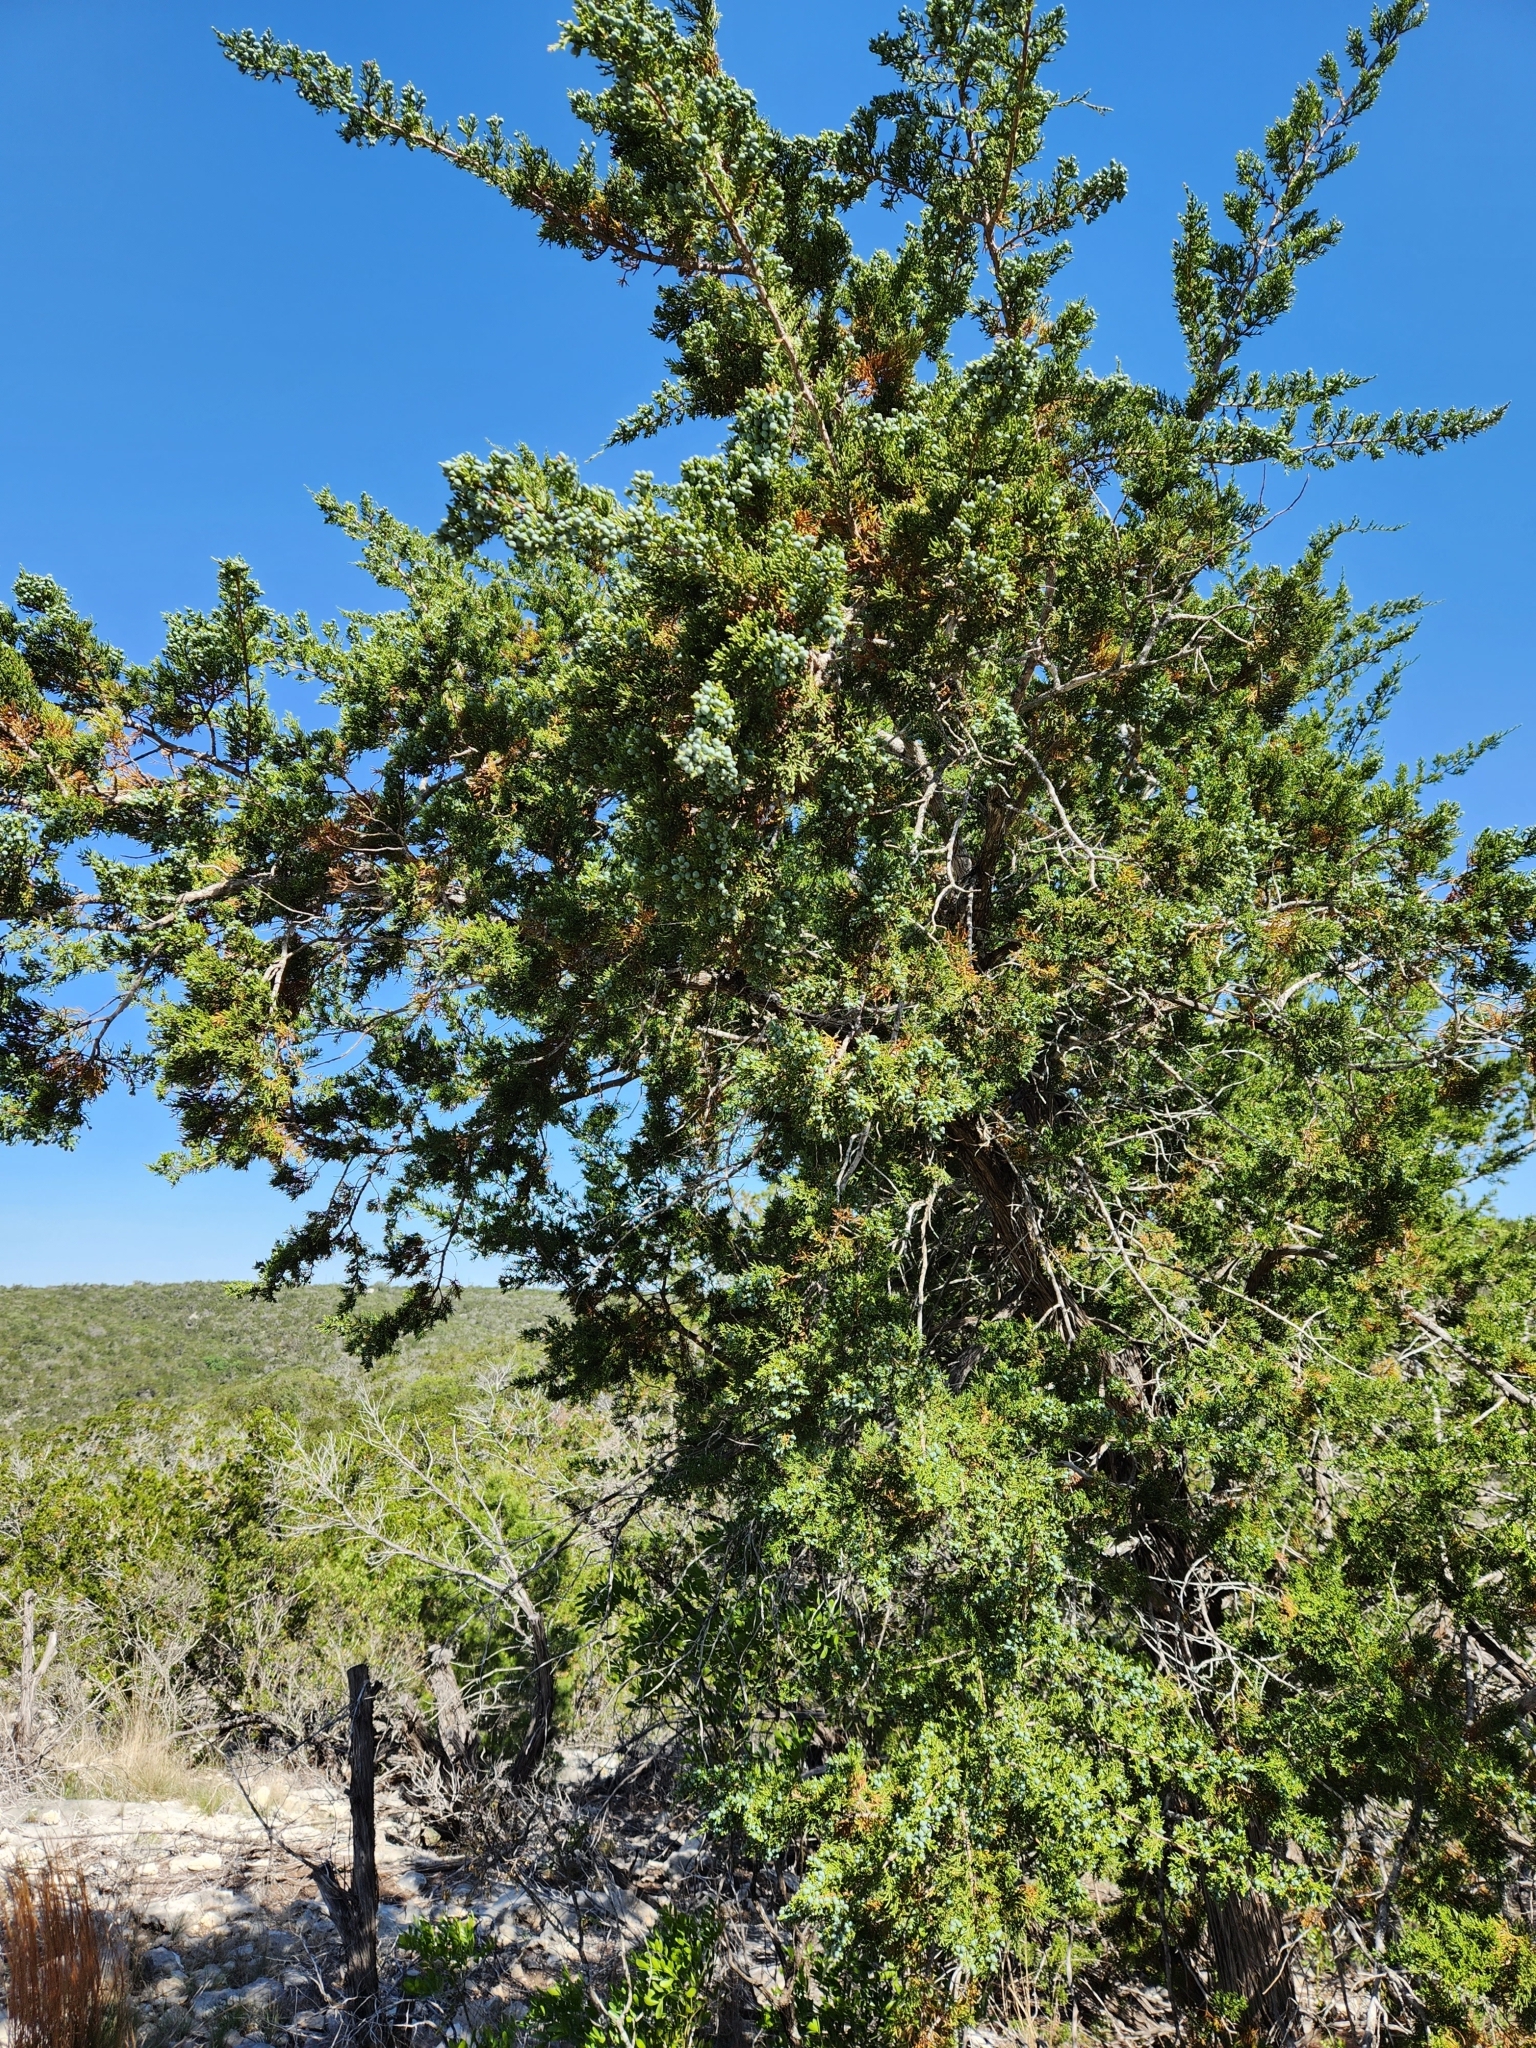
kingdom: Plantae
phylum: Tracheophyta
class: Pinopsida
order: Pinales
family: Cupressaceae
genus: Juniperus
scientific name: Juniperus ashei
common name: Mexican juniper
